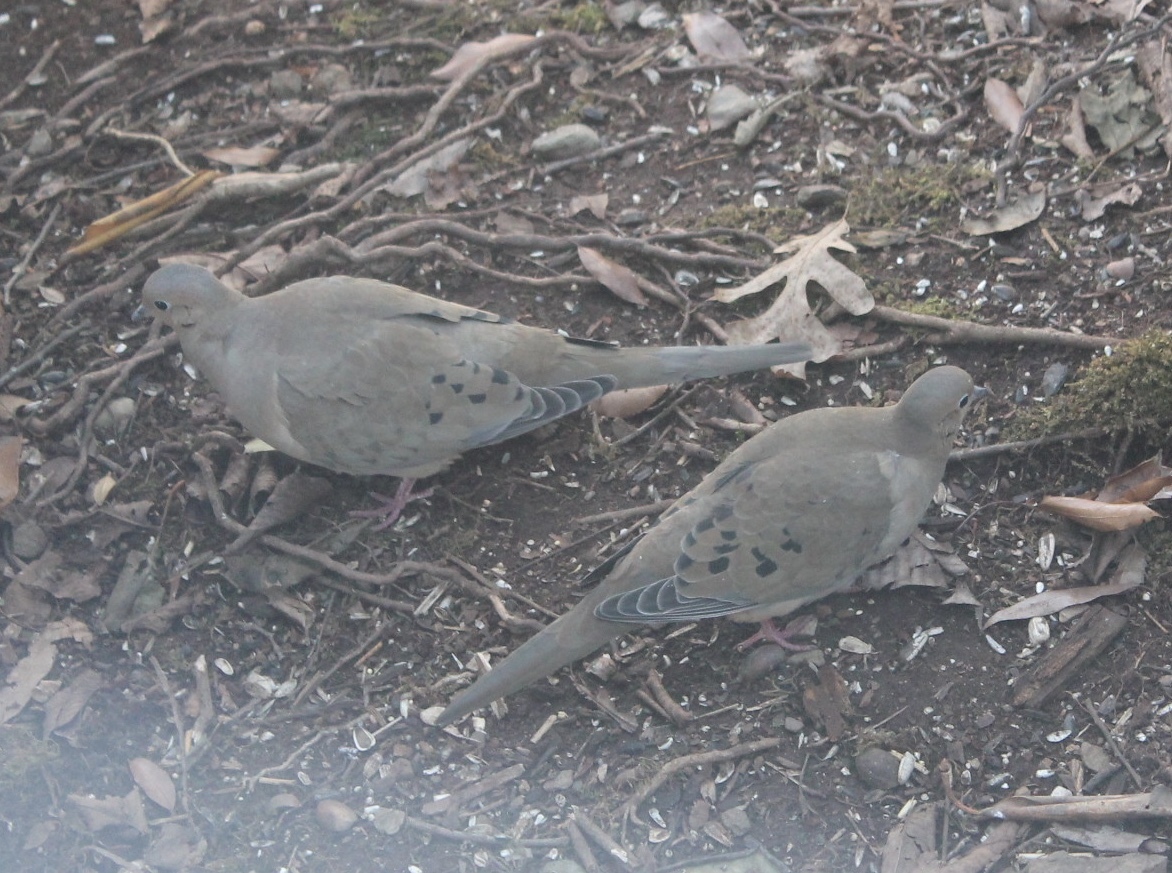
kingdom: Animalia
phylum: Chordata
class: Aves
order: Columbiformes
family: Columbidae
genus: Zenaida
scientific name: Zenaida macroura
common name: Mourning dove
